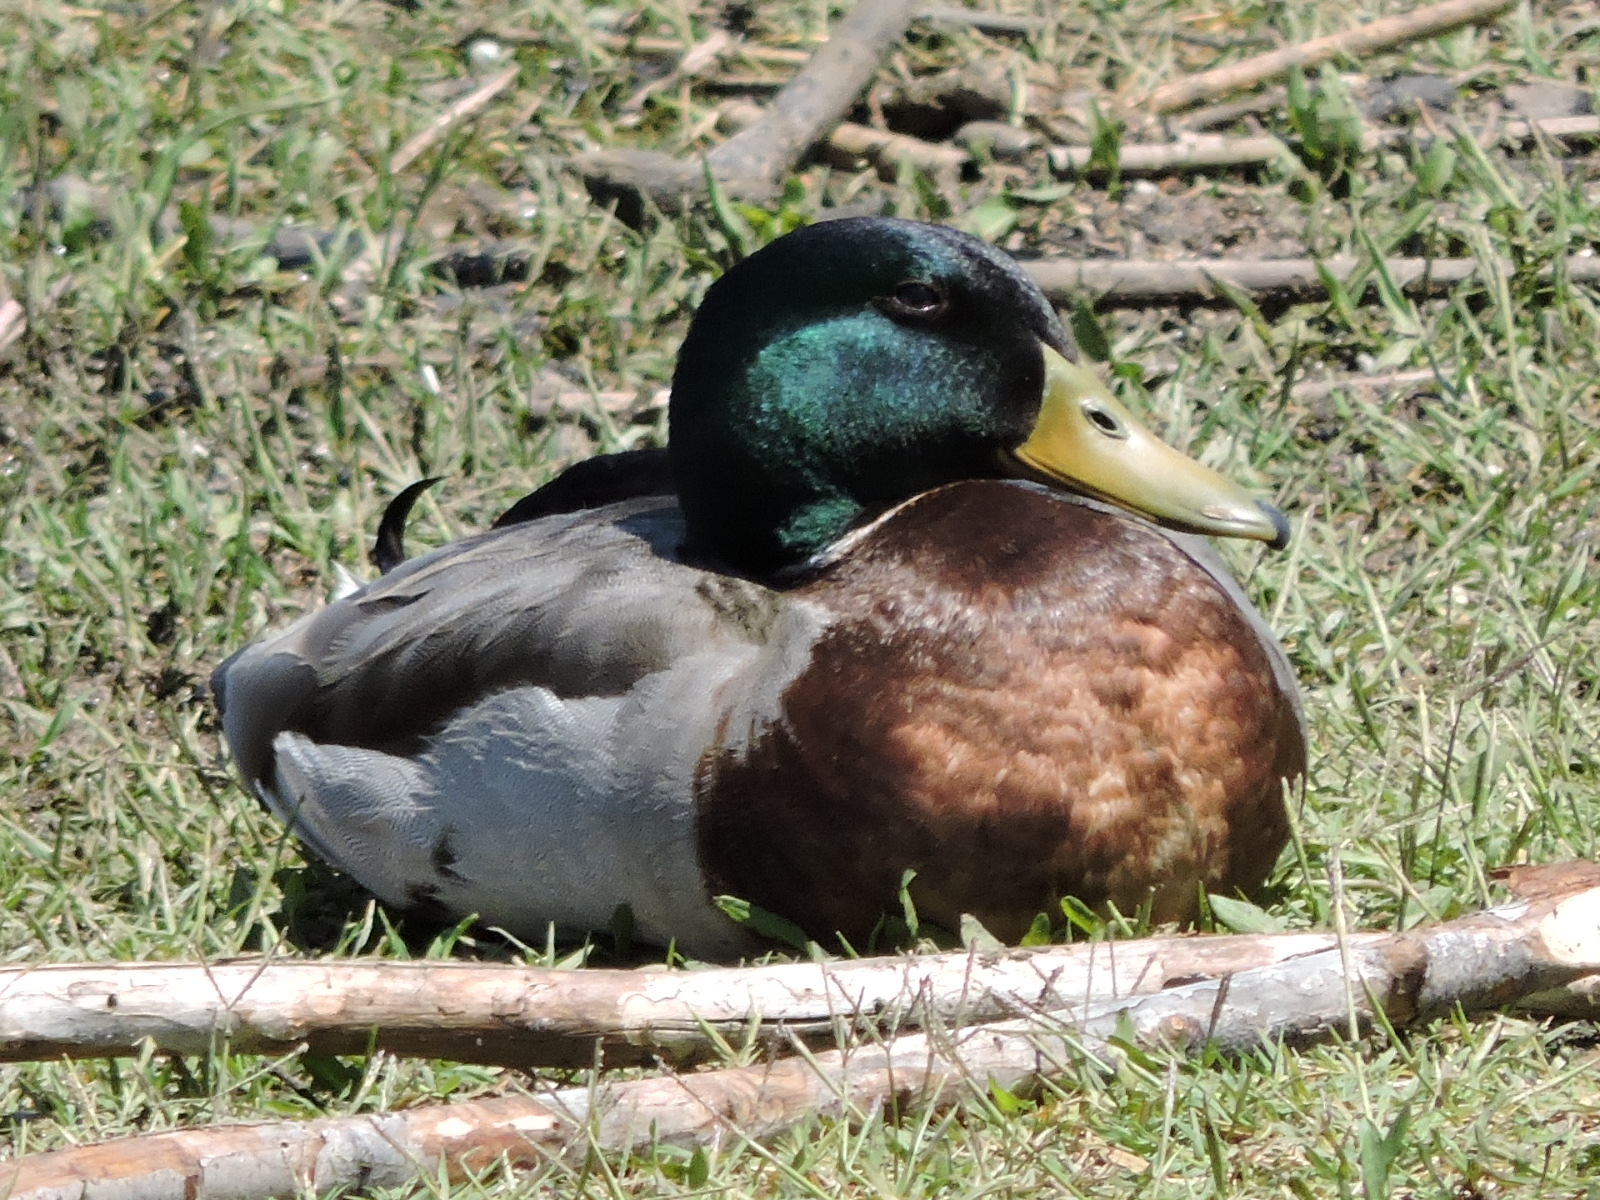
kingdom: Animalia
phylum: Chordata
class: Aves
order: Anseriformes
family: Anatidae
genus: Anas
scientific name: Anas platyrhynchos
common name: Mallard
